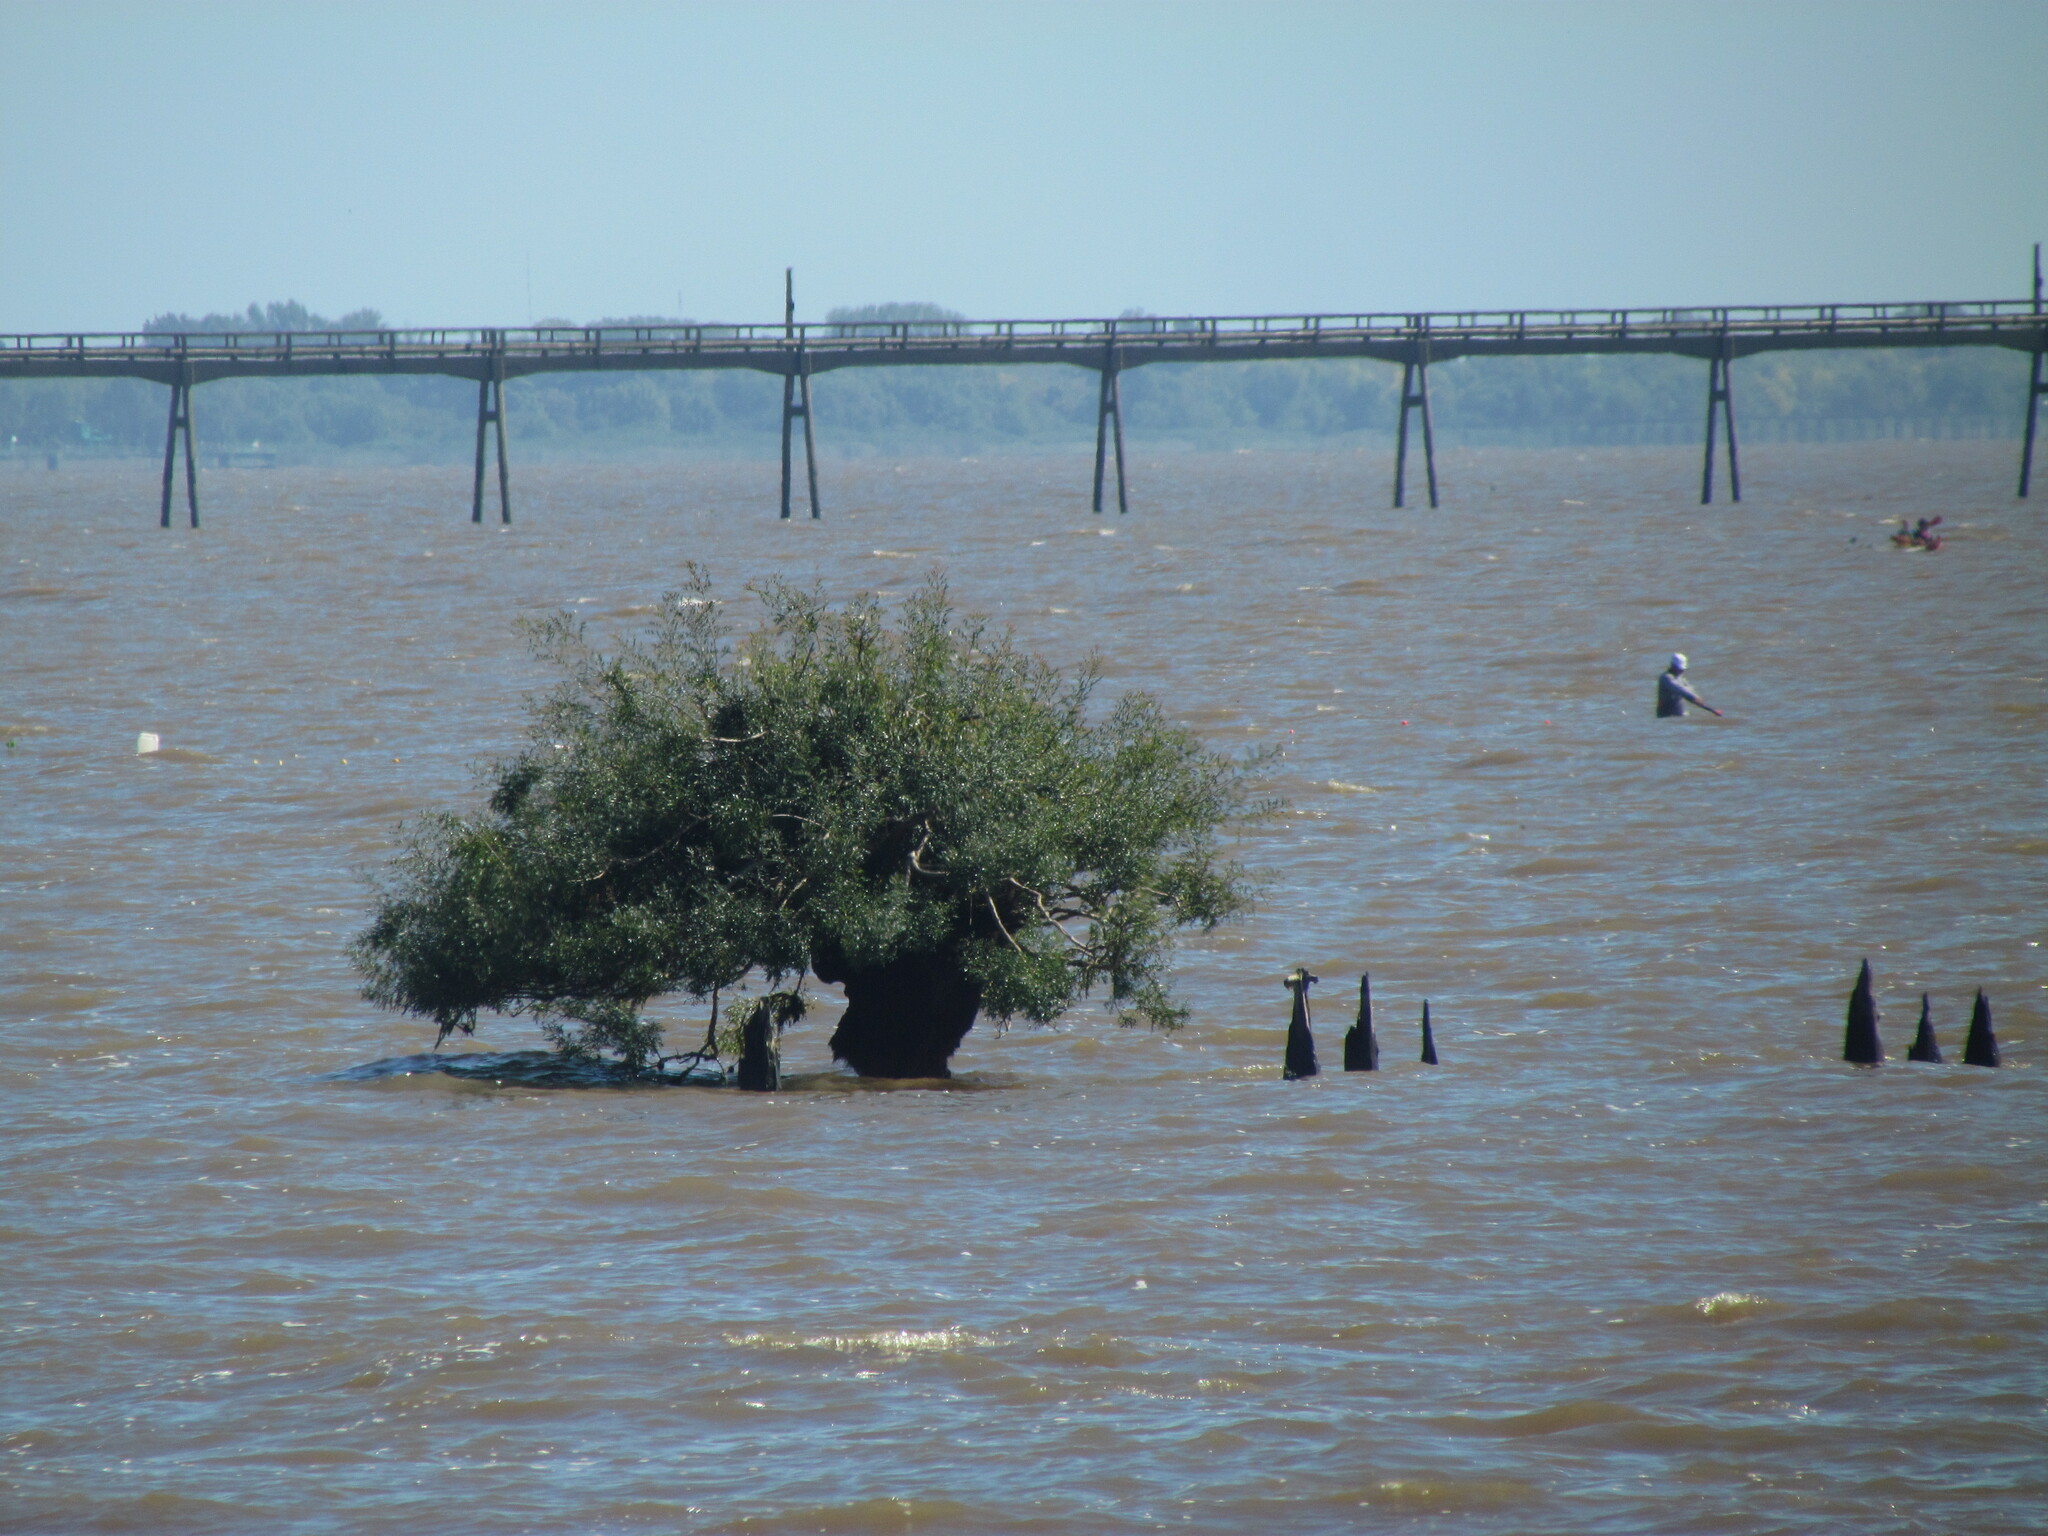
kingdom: Plantae
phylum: Tracheophyta
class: Magnoliopsida
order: Malpighiales
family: Phyllanthaceae
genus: Phyllanthus
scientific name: Phyllanthus sellowianus
